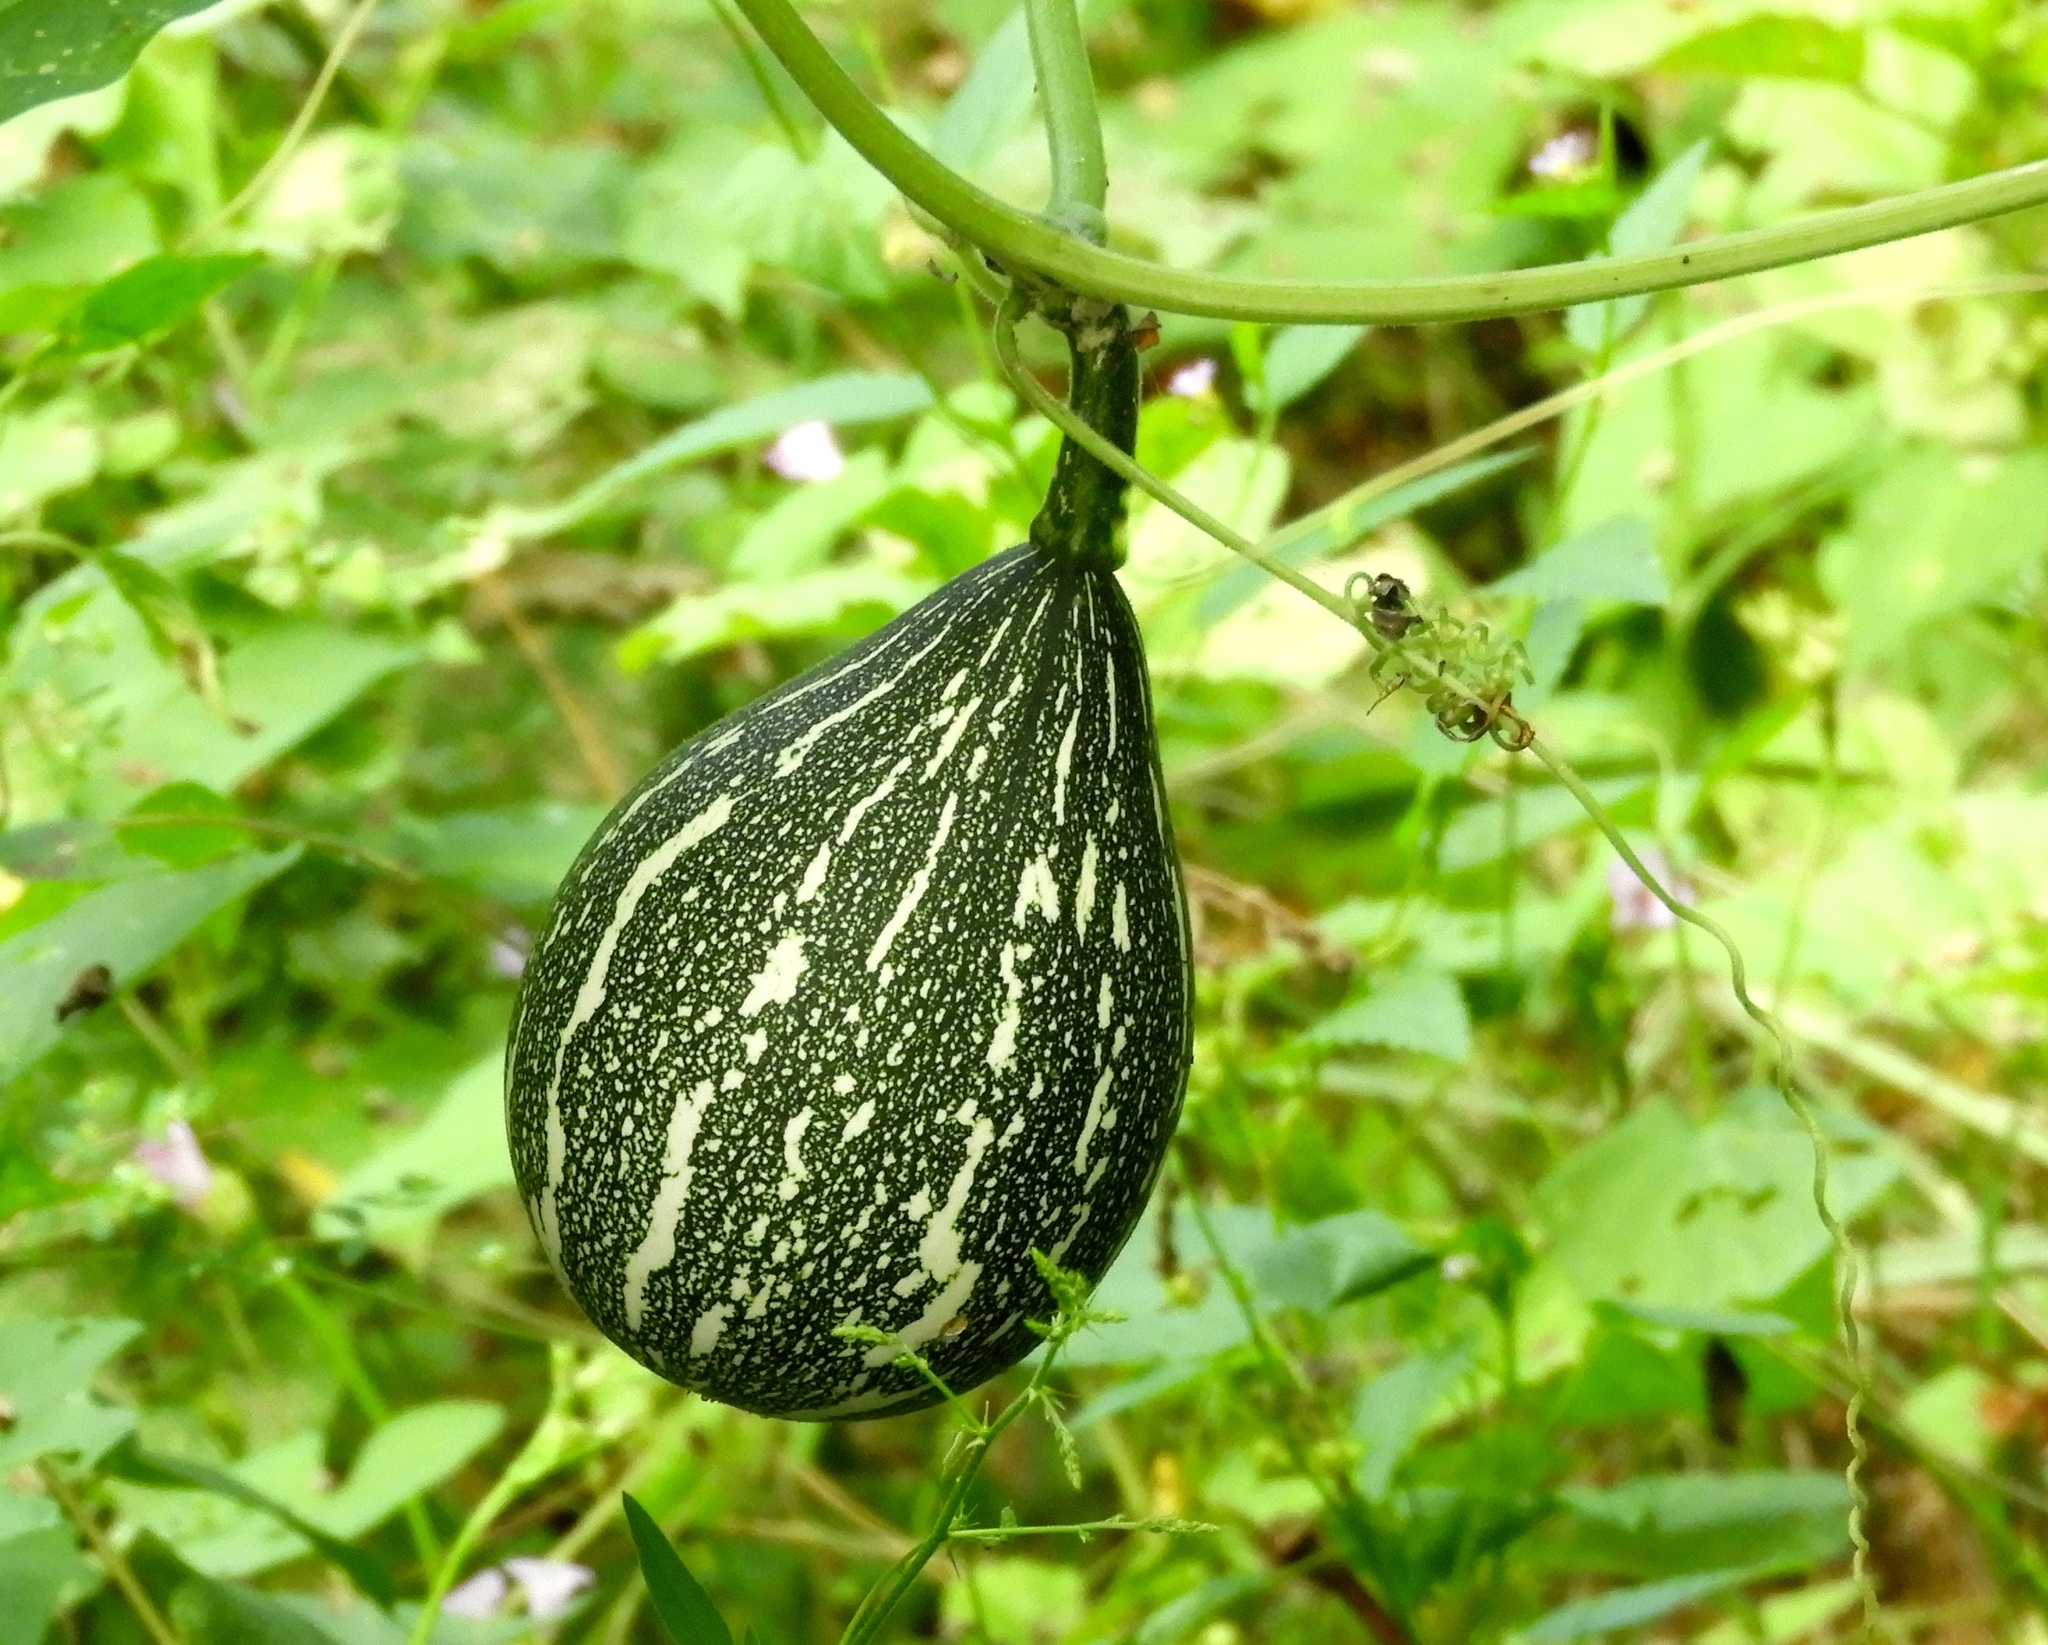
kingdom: Plantae
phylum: Tracheophyta
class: Magnoliopsida
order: Cucurbitales
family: Cucurbitaceae
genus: Cucurbita
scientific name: Cucurbita argyrosperma
